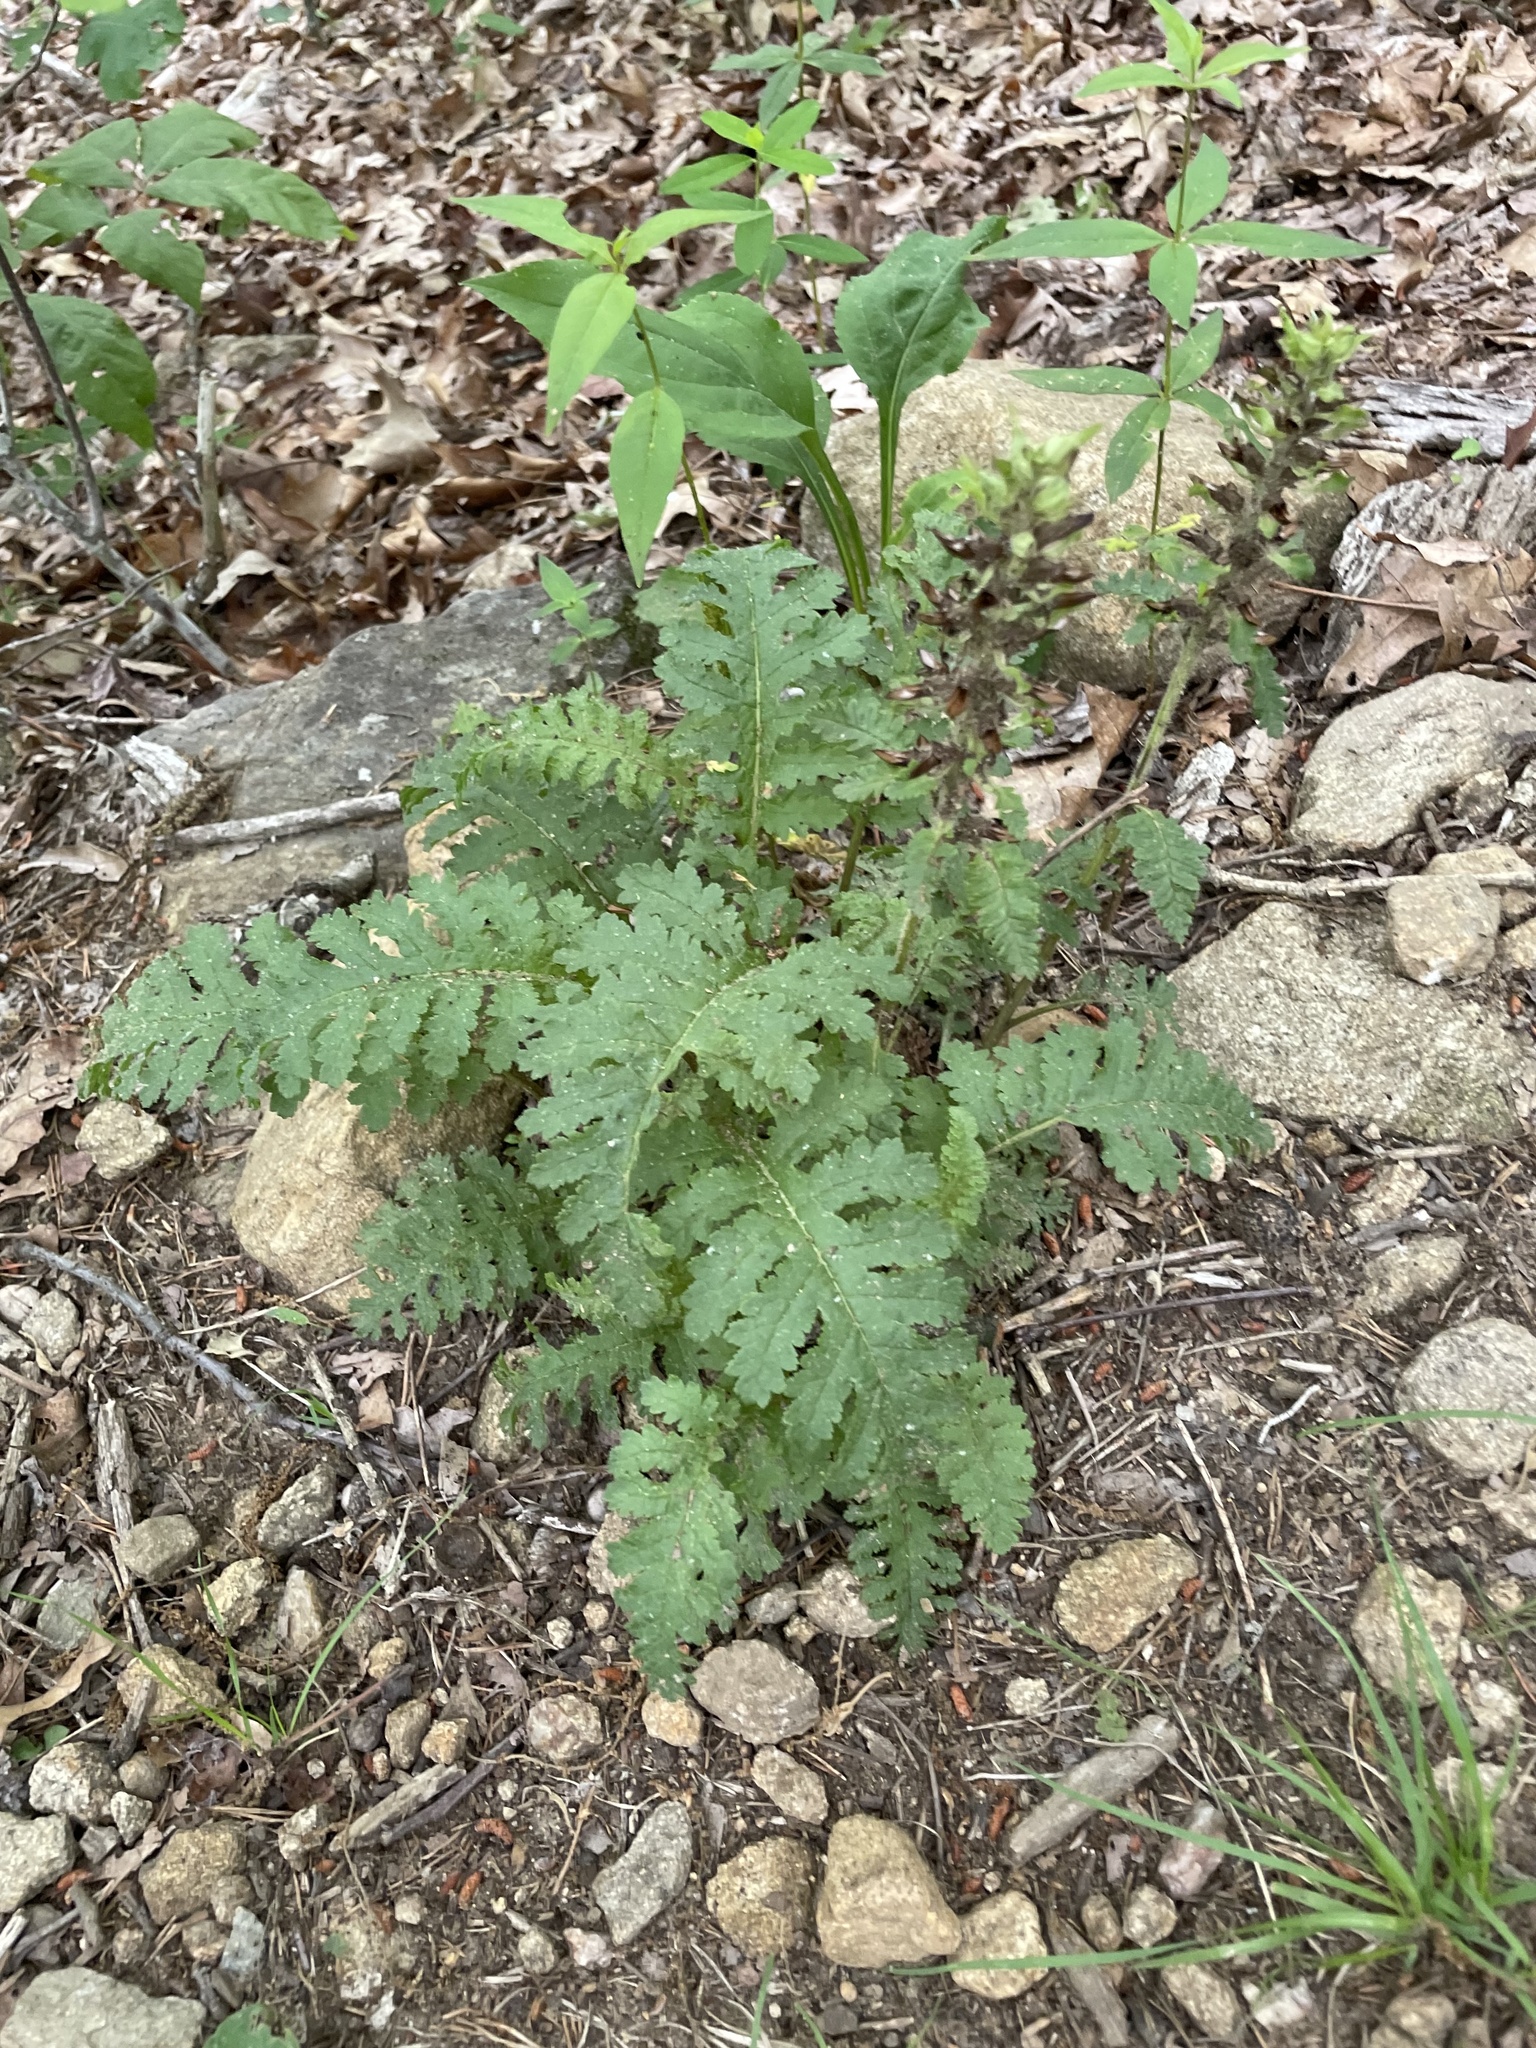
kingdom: Plantae
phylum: Tracheophyta
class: Magnoliopsida
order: Lamiales
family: Orobanchaceae
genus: Pedicularis
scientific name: Pedicularis canadensis
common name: Early lousewort
